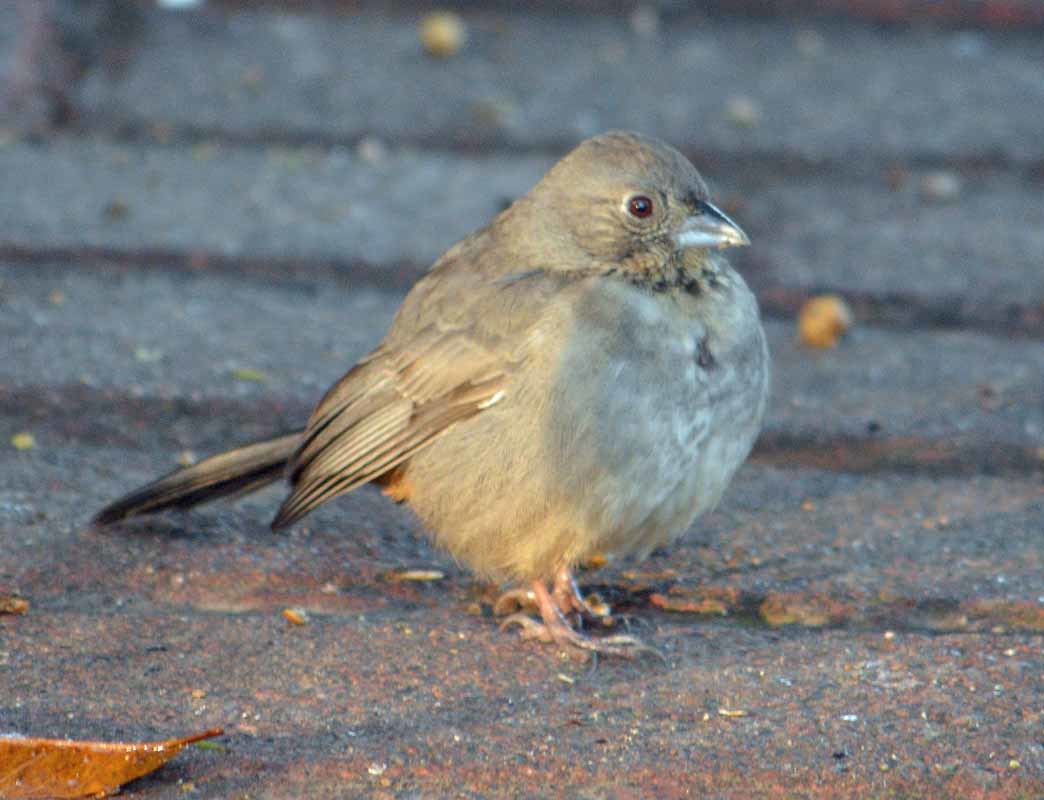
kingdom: Animalia
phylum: Chordata
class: Aves
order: Passeriformes
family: Passerellidae
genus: Melozone
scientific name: Melozone fusca
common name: Canyon towhee
